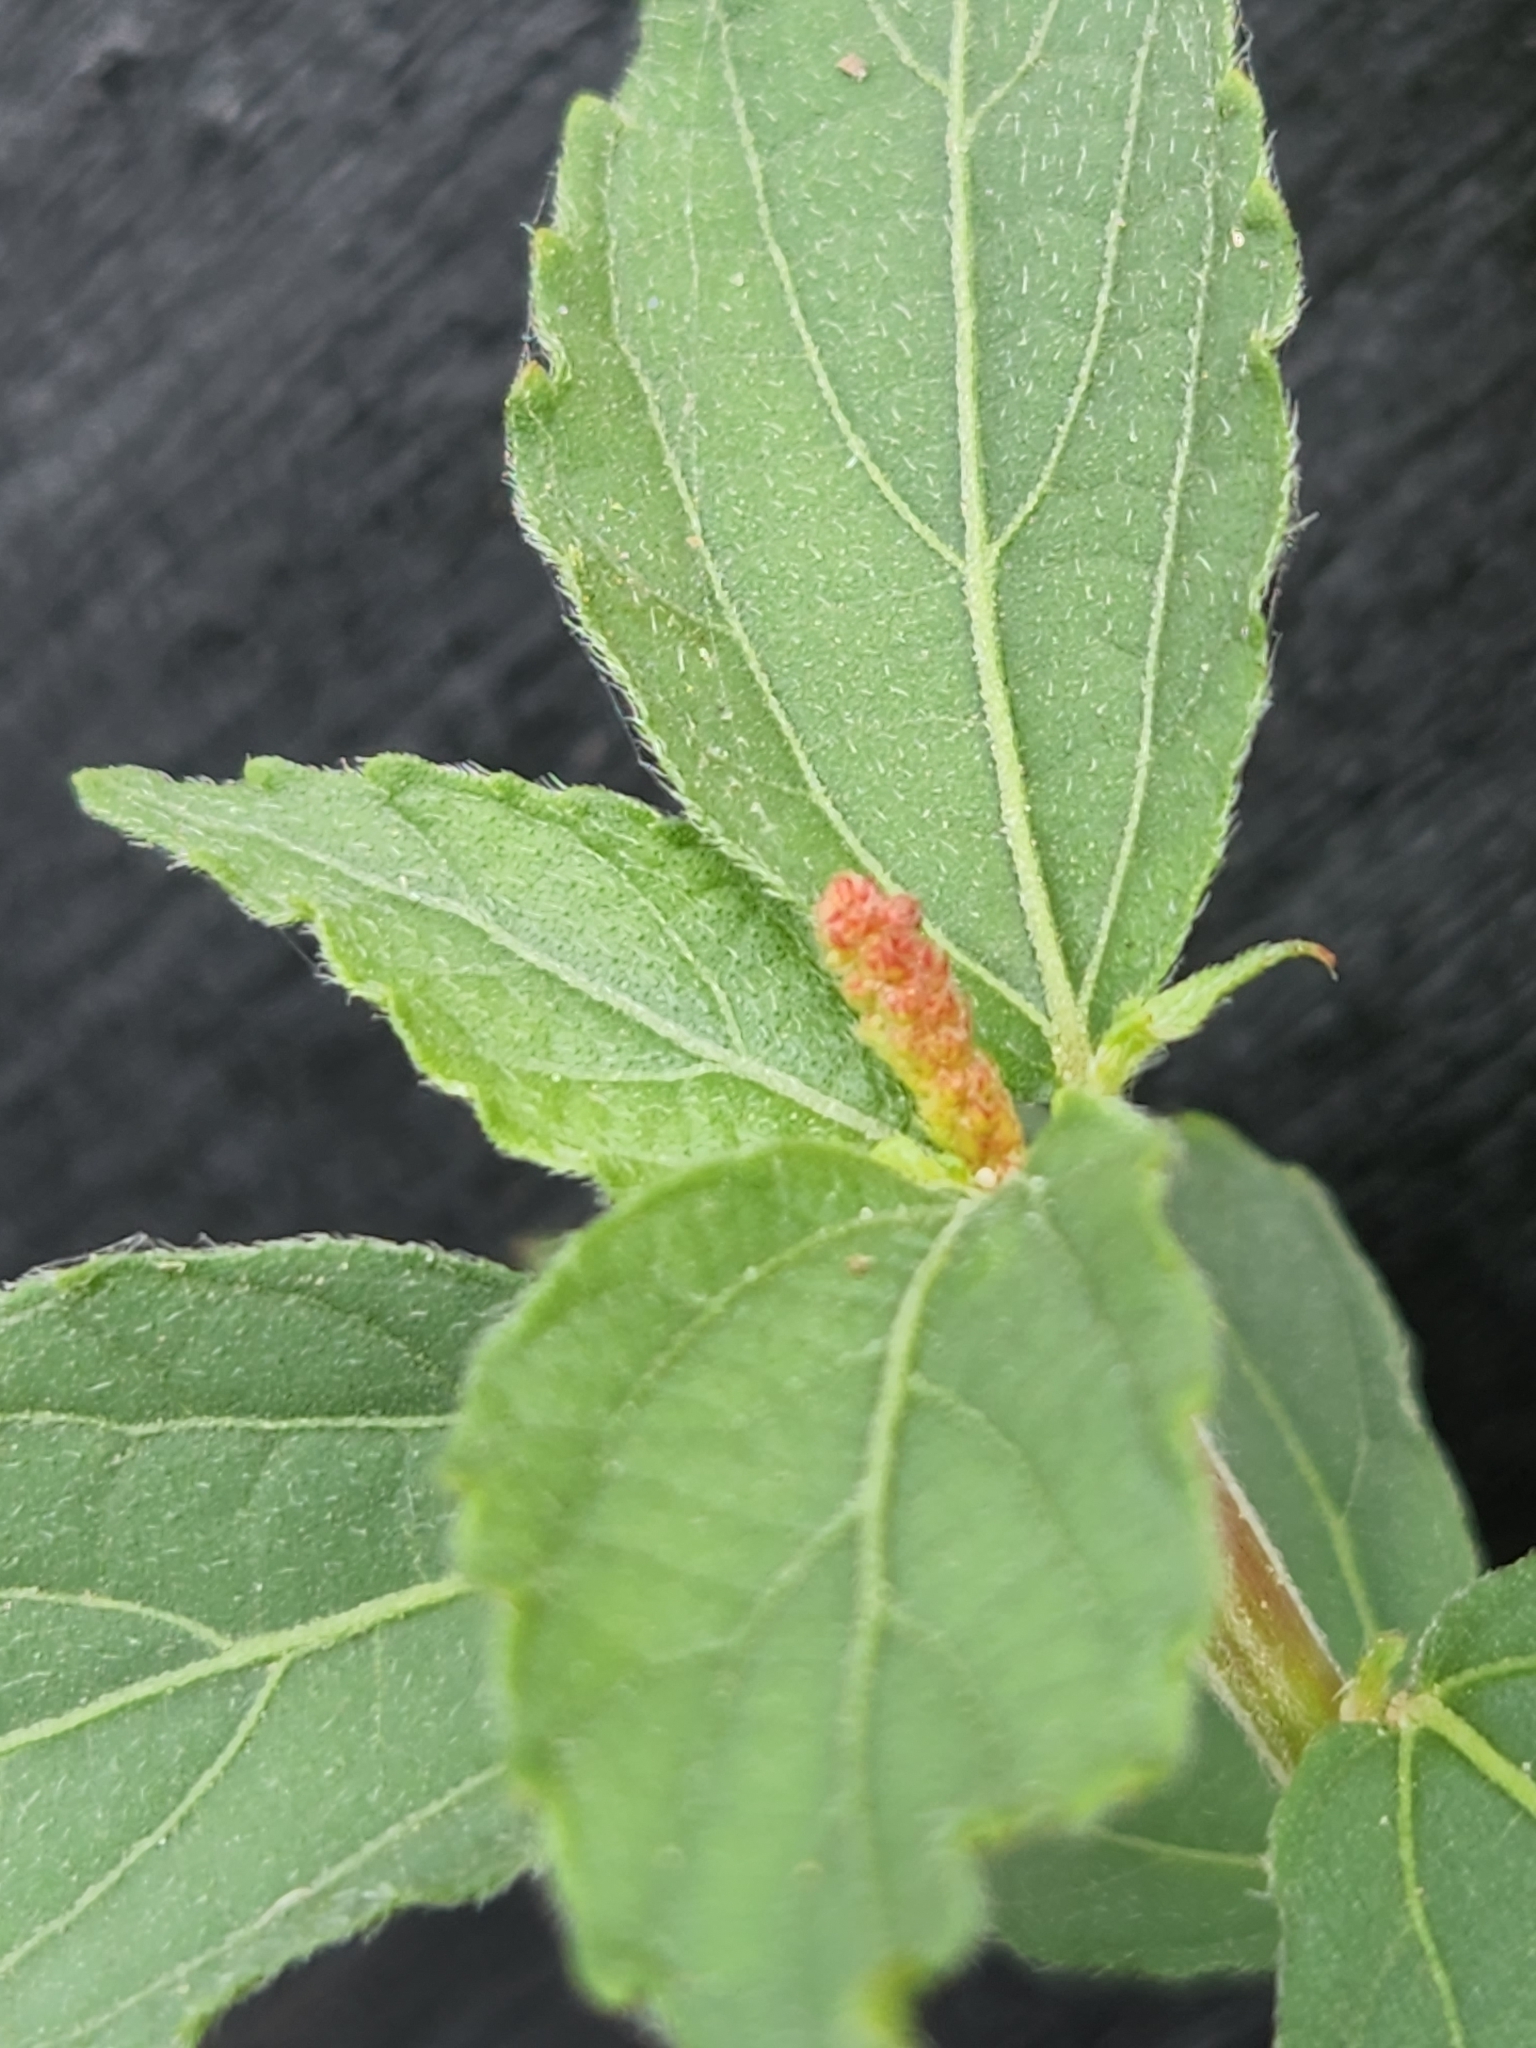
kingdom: Plantae
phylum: Tracheophyta
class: Magnoliopsida
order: Malpighiales
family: Euphorbiaceae
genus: Acalypha
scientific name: Acalypha phleoides
